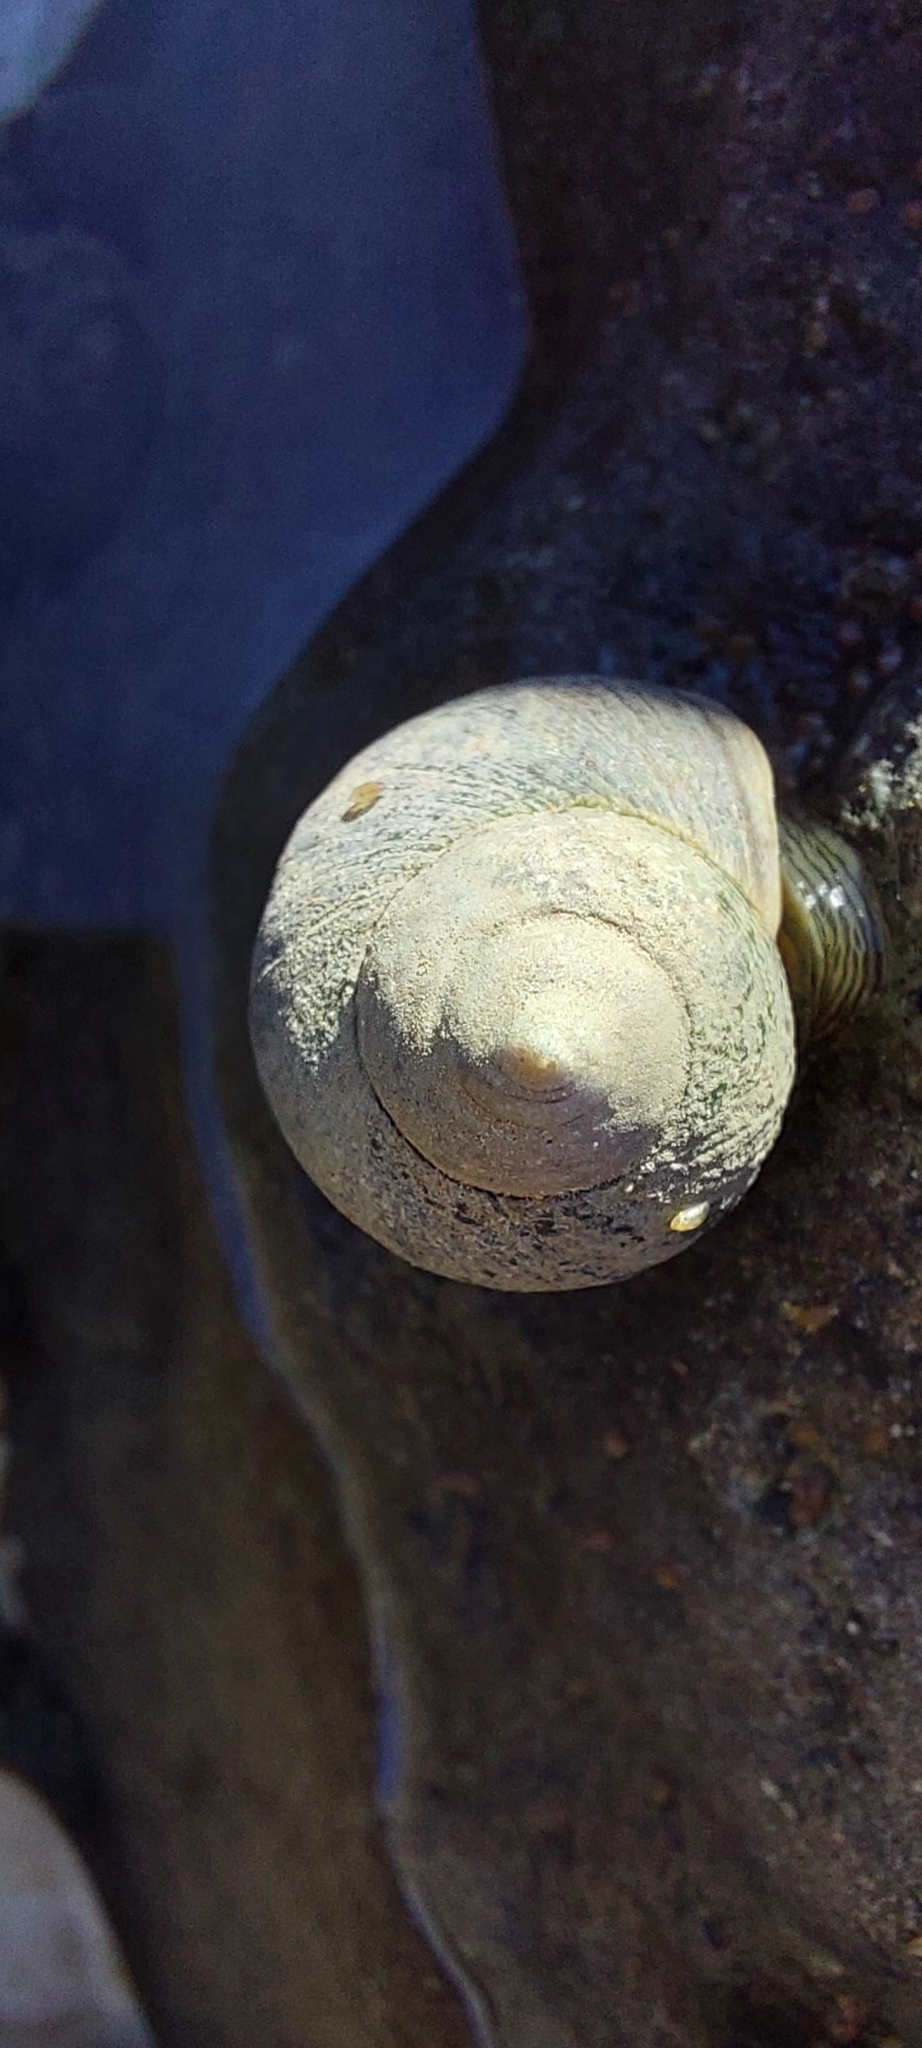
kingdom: Animalia
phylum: Mollusca
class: Gastropoda
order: Littorinimorpha
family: Littorinidae
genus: Littorina
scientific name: Littorina littorea
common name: Common periwinkle
